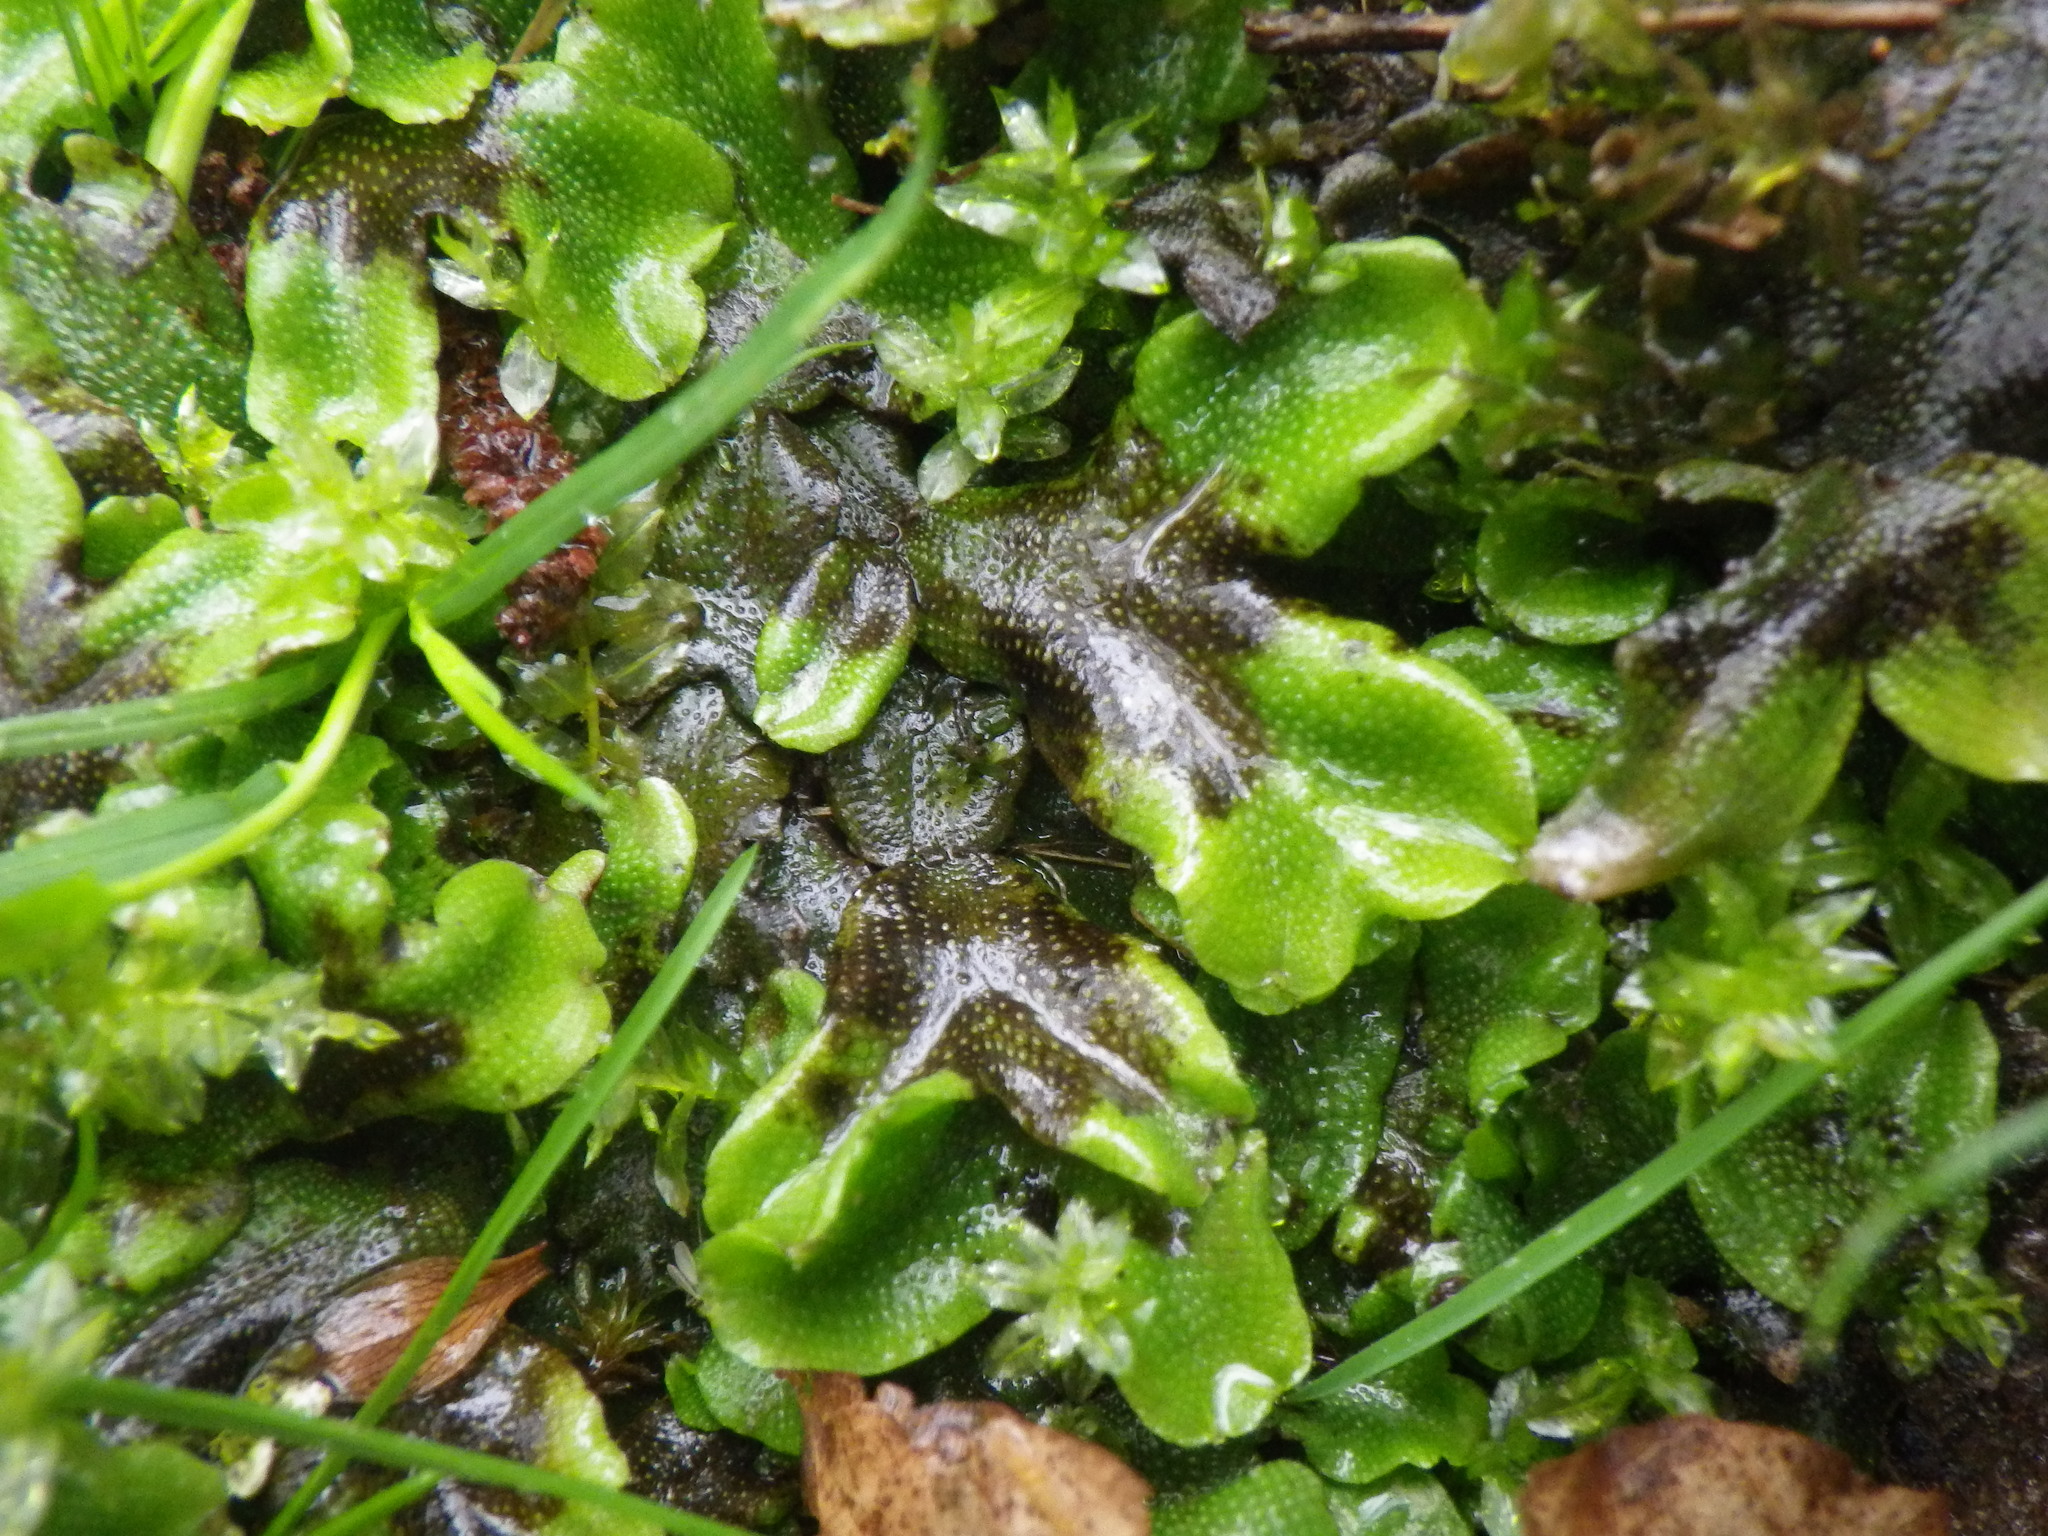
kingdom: Plantae
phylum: Marchantiophyta
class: Marchantiopsida
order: Marchantiales
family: Conocephalaceae
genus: Conocephalum
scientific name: Conocephalum conicum
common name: Great scented liverwort
